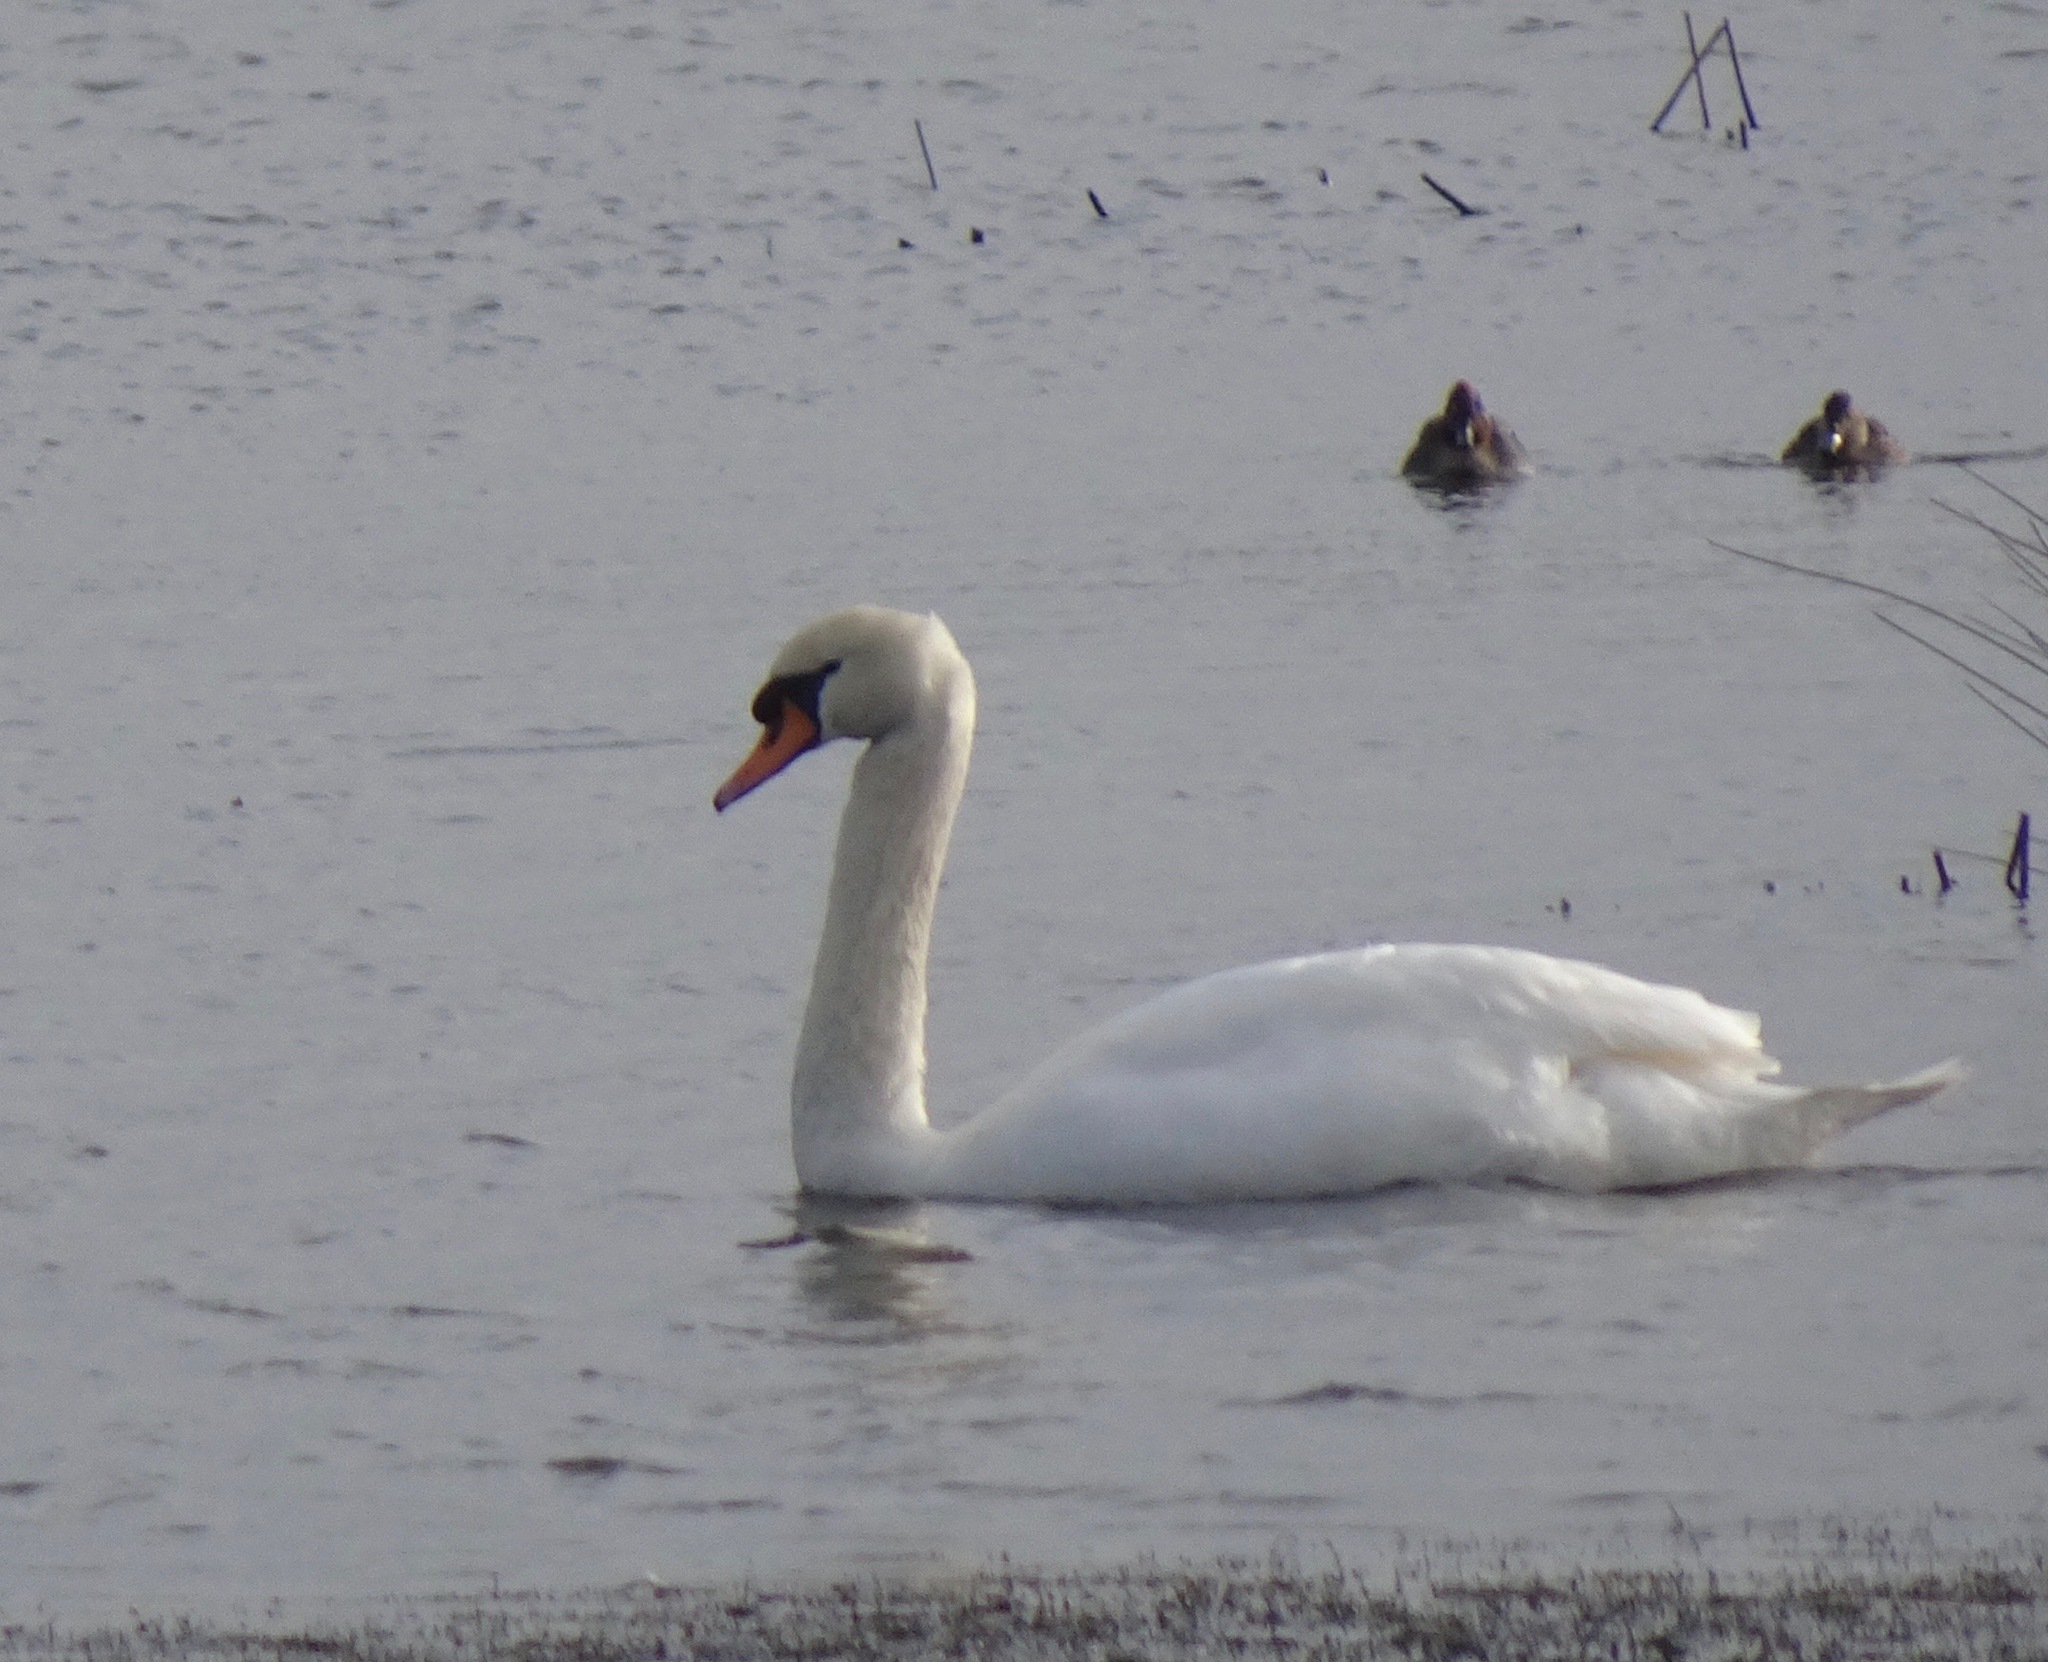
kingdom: Animalia
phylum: Chordata
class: Aves
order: Anseriformes
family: Anatidae
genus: Cygnus
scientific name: Cygnus olor
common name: Mute swan
